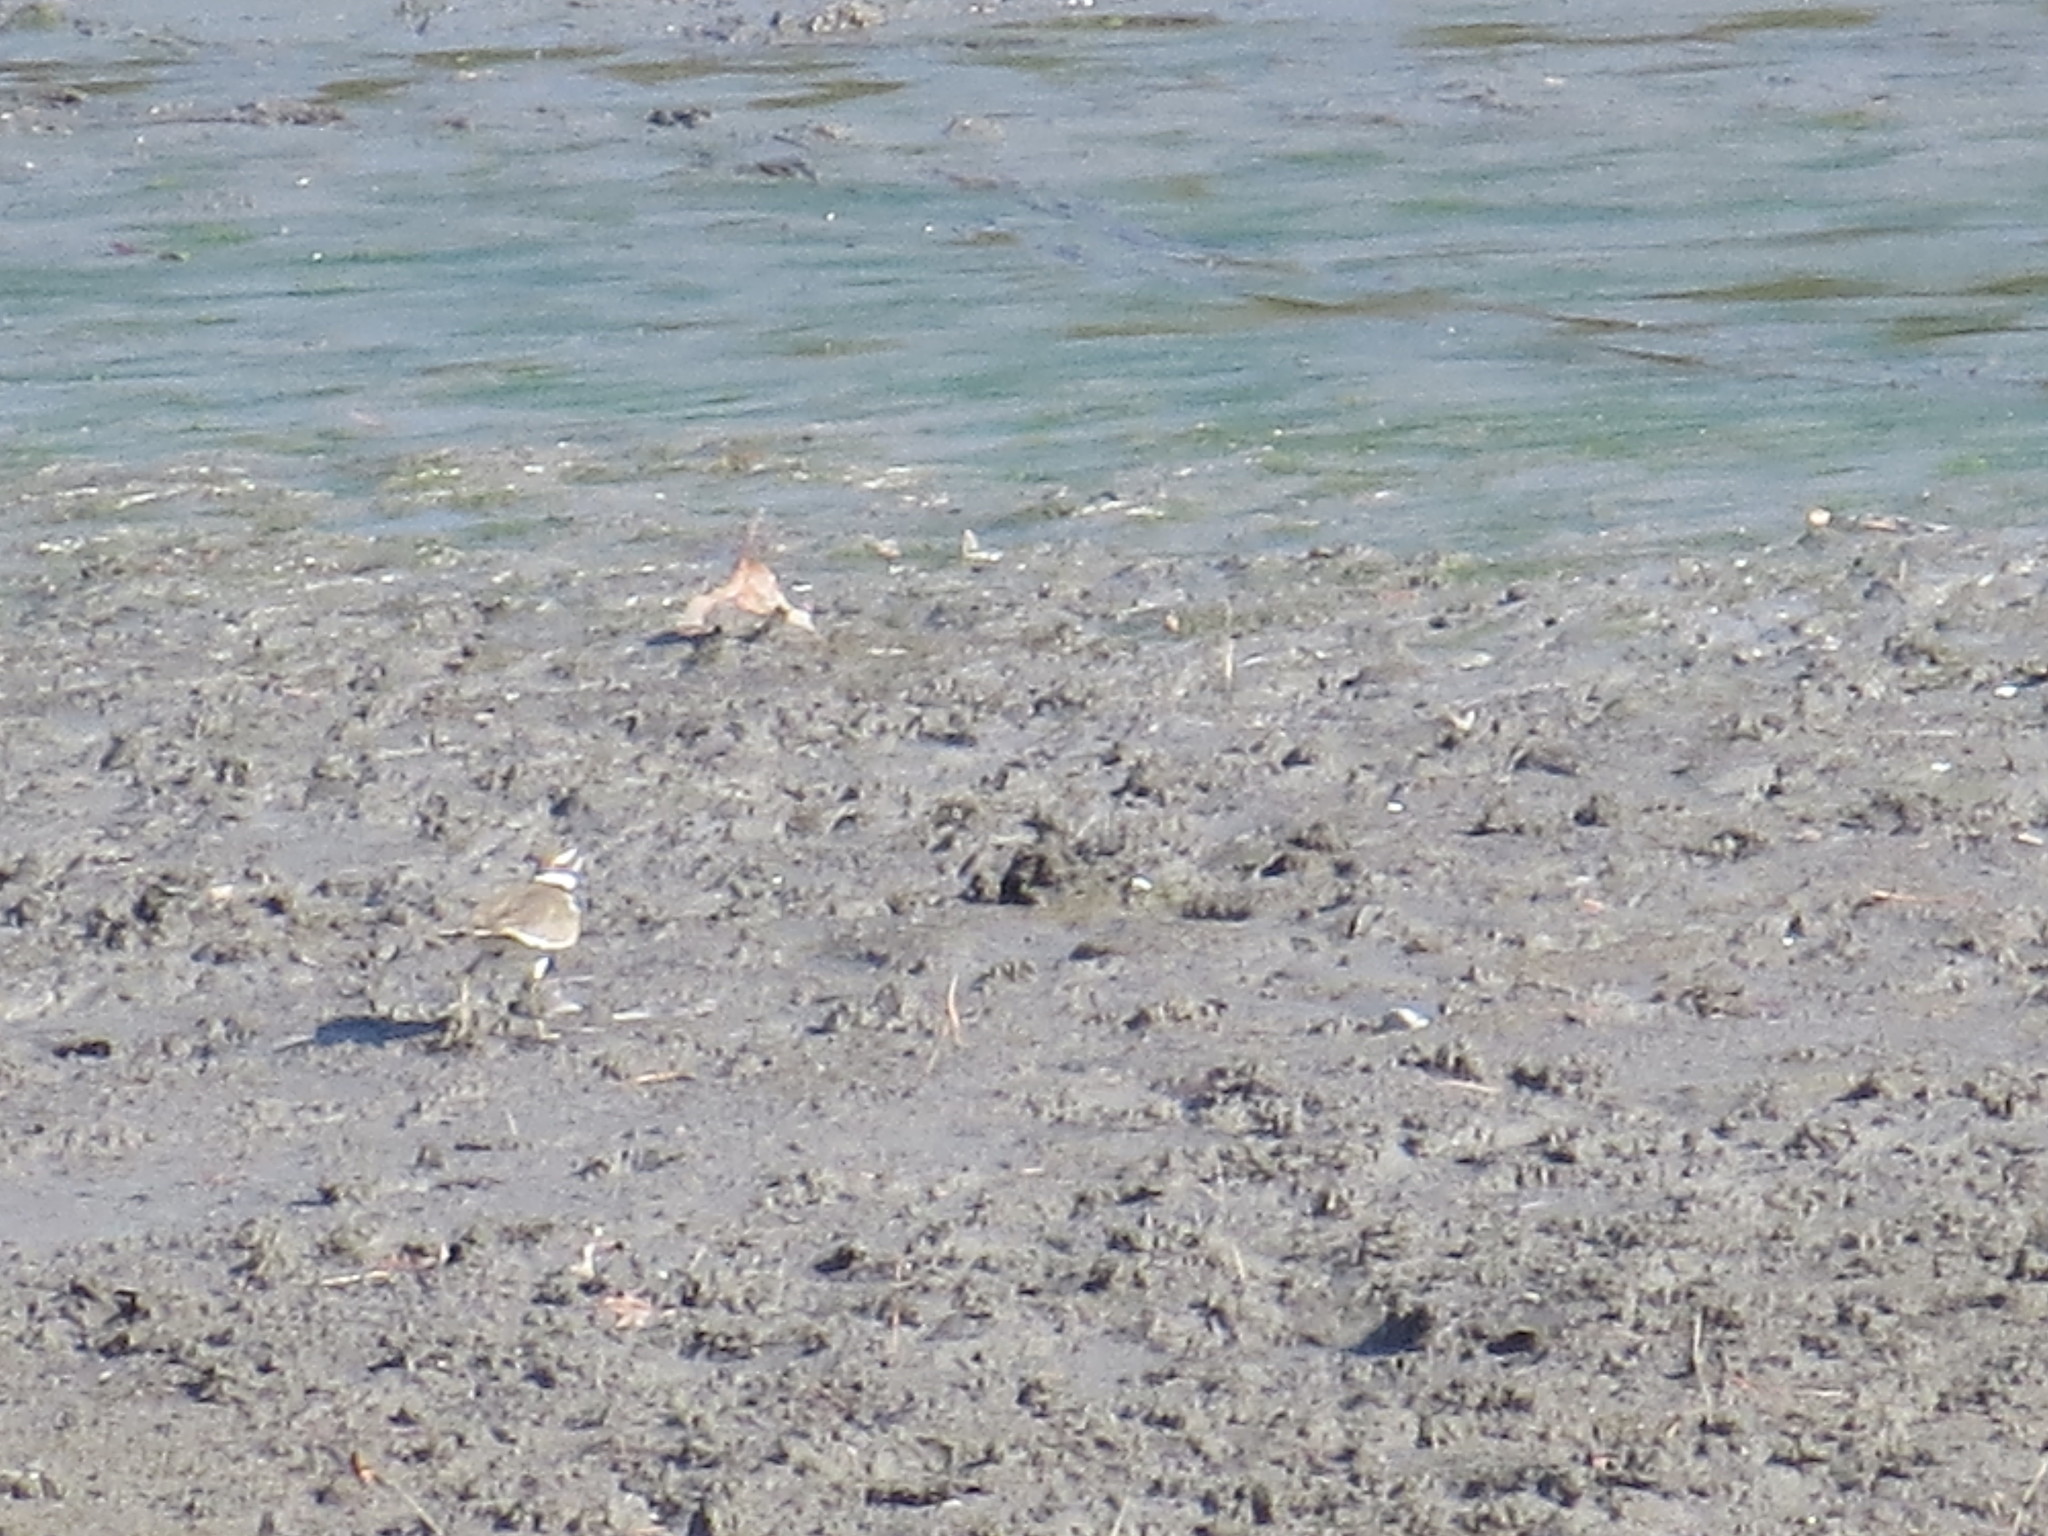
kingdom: Animalia
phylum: Chordata
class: Aves
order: Charadriiformes
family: Charadriidae
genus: Charadrius
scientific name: Charadrius vociferus
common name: Killdeer
